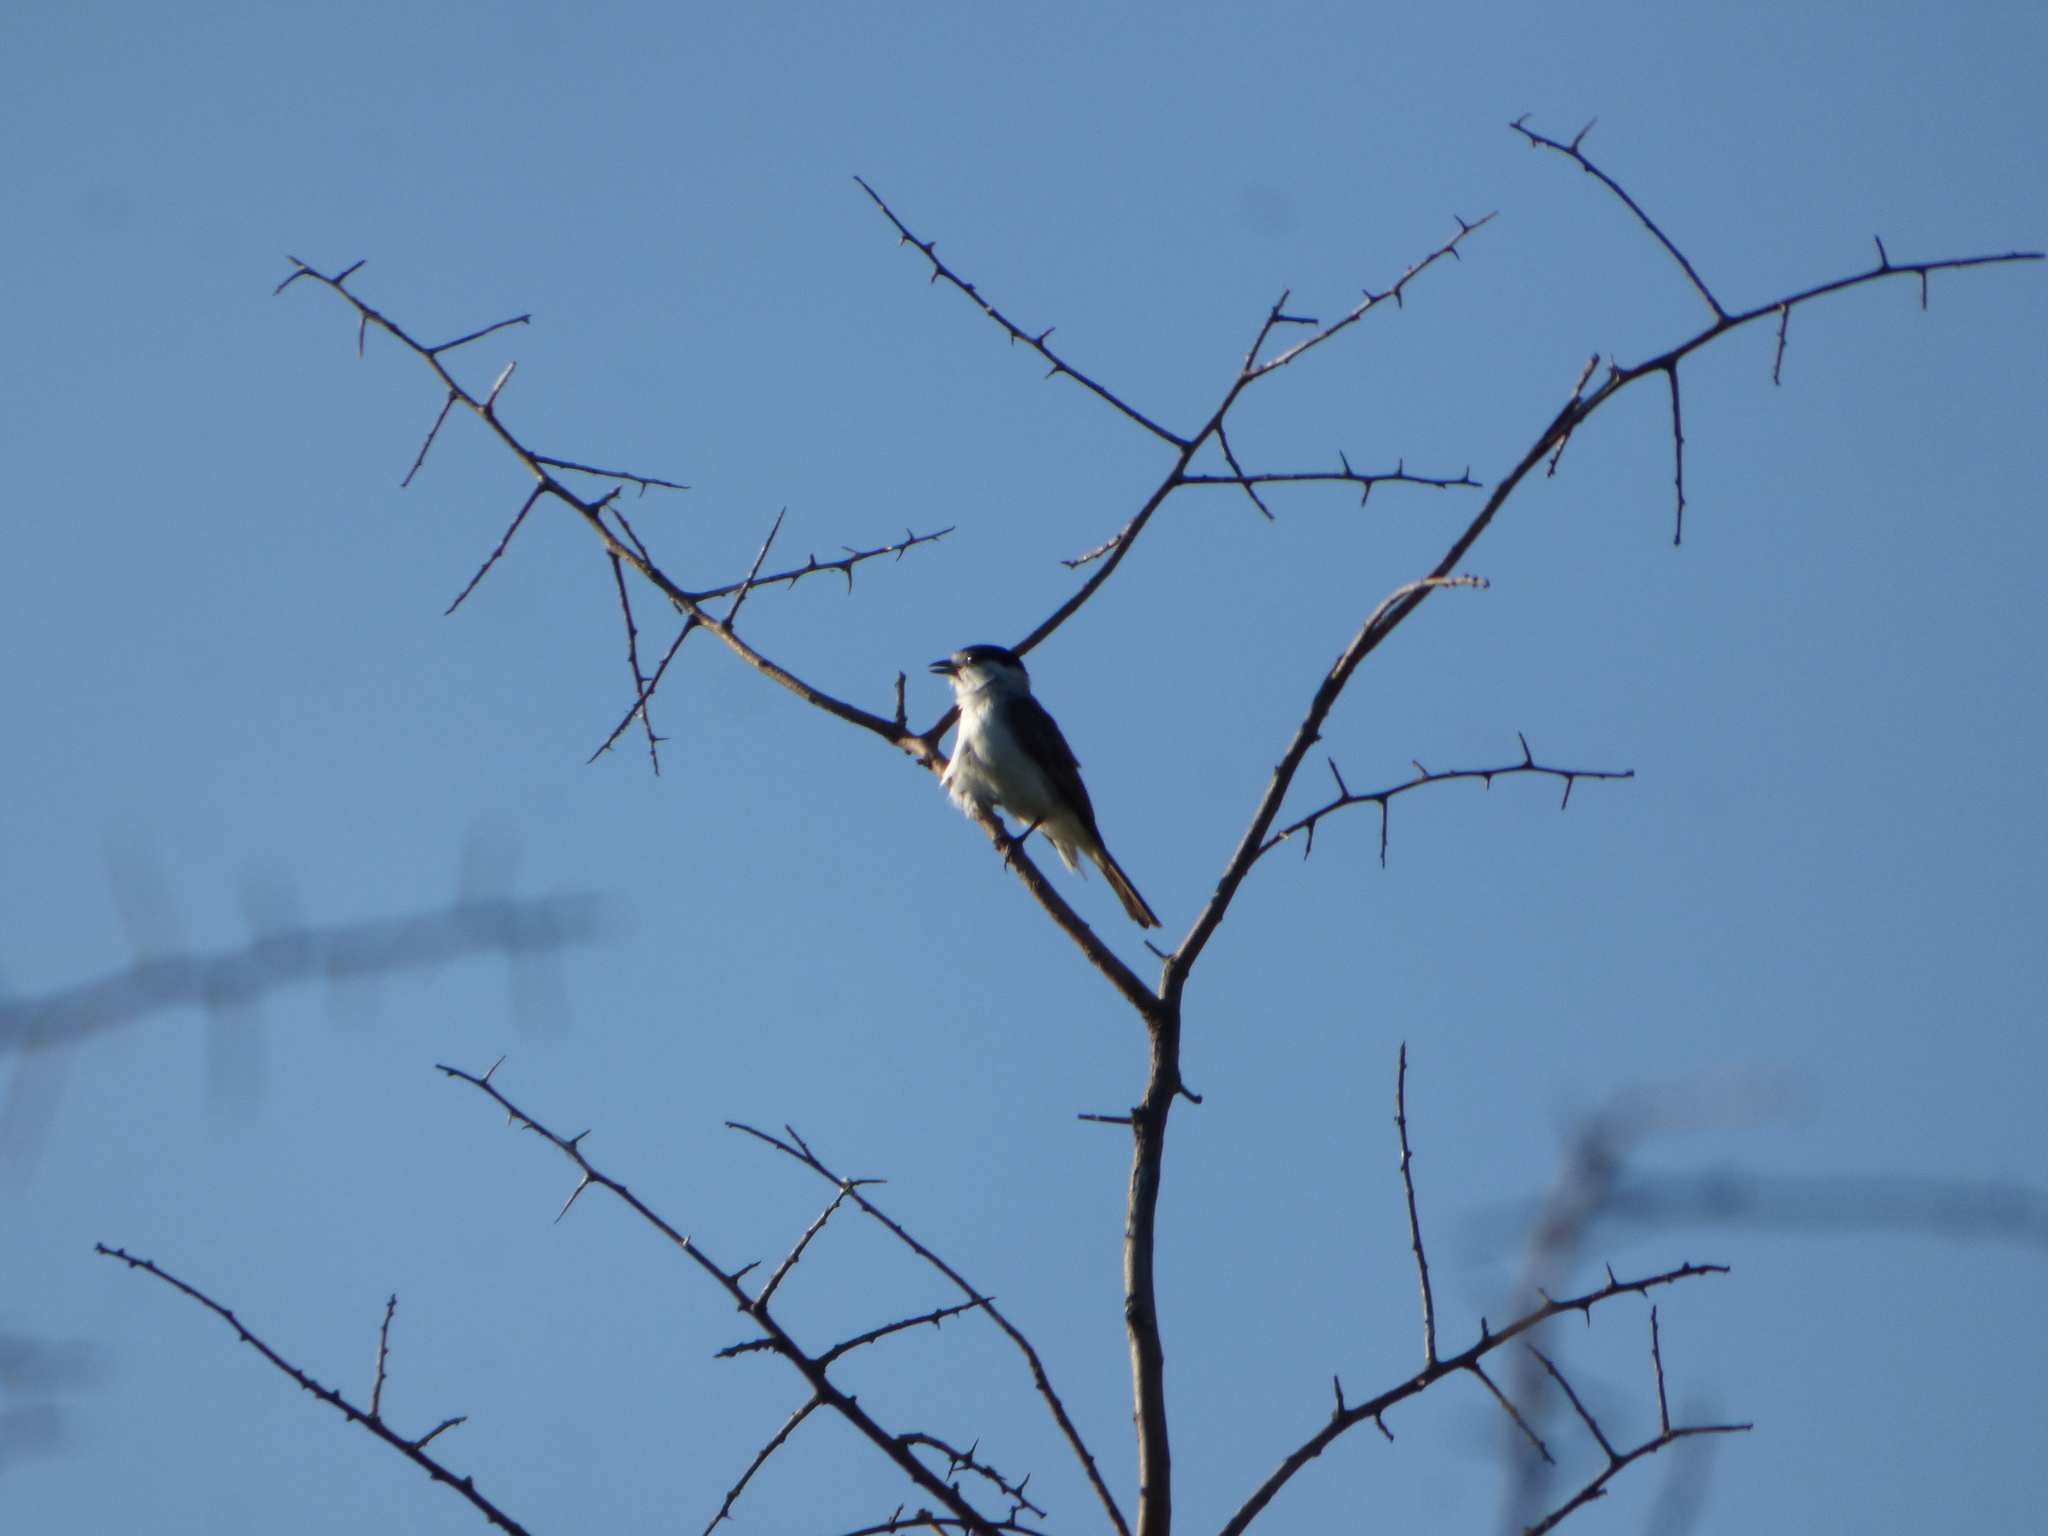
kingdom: Animalia
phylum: Chordata
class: Aves
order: Passeriformes
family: Cotingidae
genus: Xenopsaris
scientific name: Xenopsaris albinucha
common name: White-naped xenopsaris
